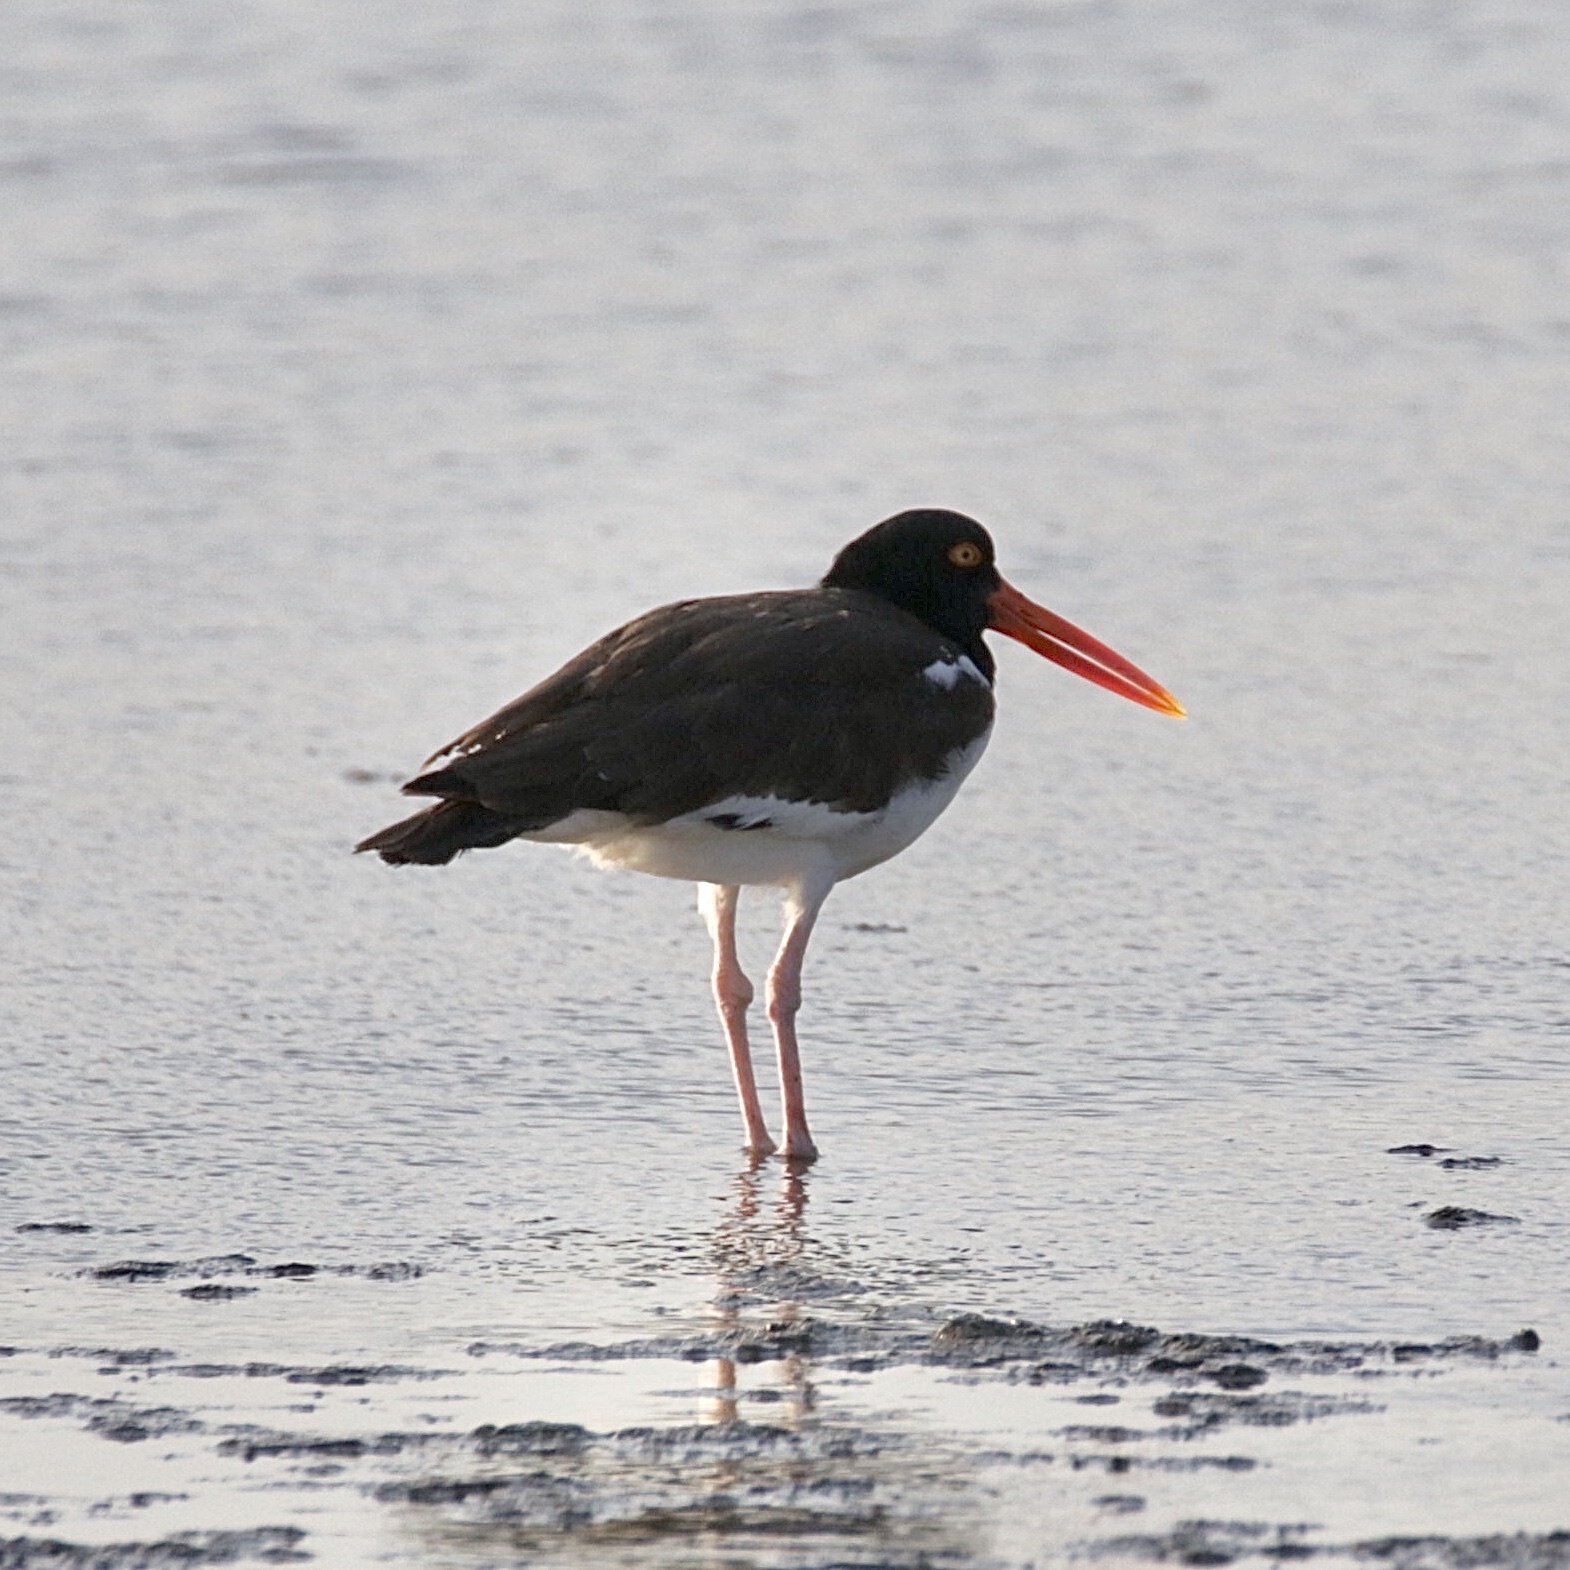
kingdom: Animalia
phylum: Chordata
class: Aves
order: Charadriiformes
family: Haematopodidae
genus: Haematopus
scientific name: Haematopus palliatus
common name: American oystercatcher
